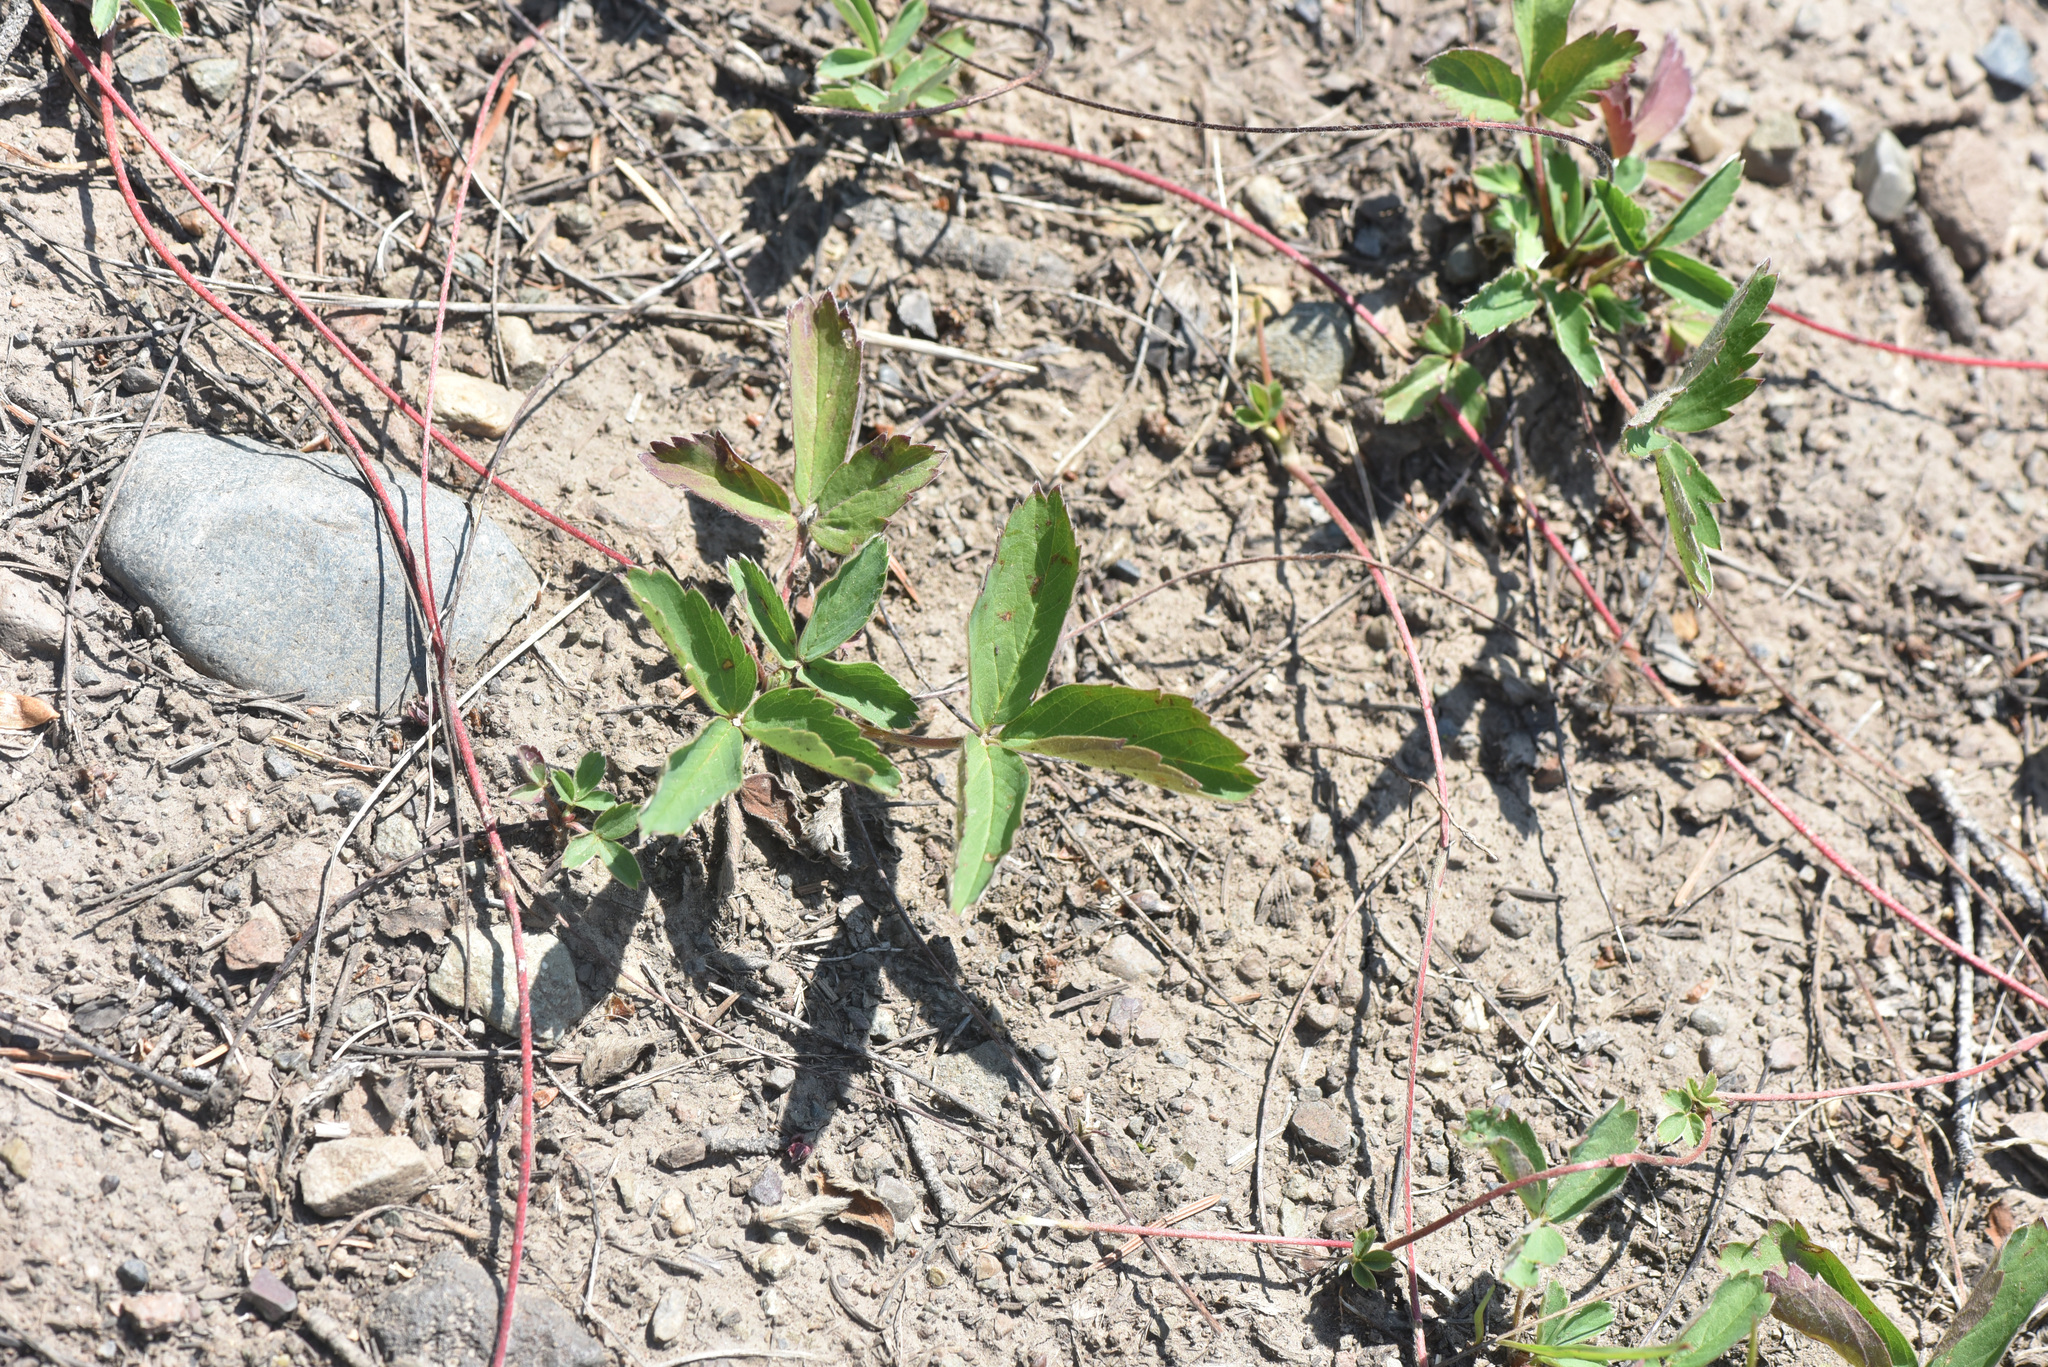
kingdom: Plantae
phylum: Tracheophyta
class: Magnoliopsida
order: Rosales
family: Rosaceae
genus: Fragaria
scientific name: Fragaria virginiana
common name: Thickleaved wild strawberry
